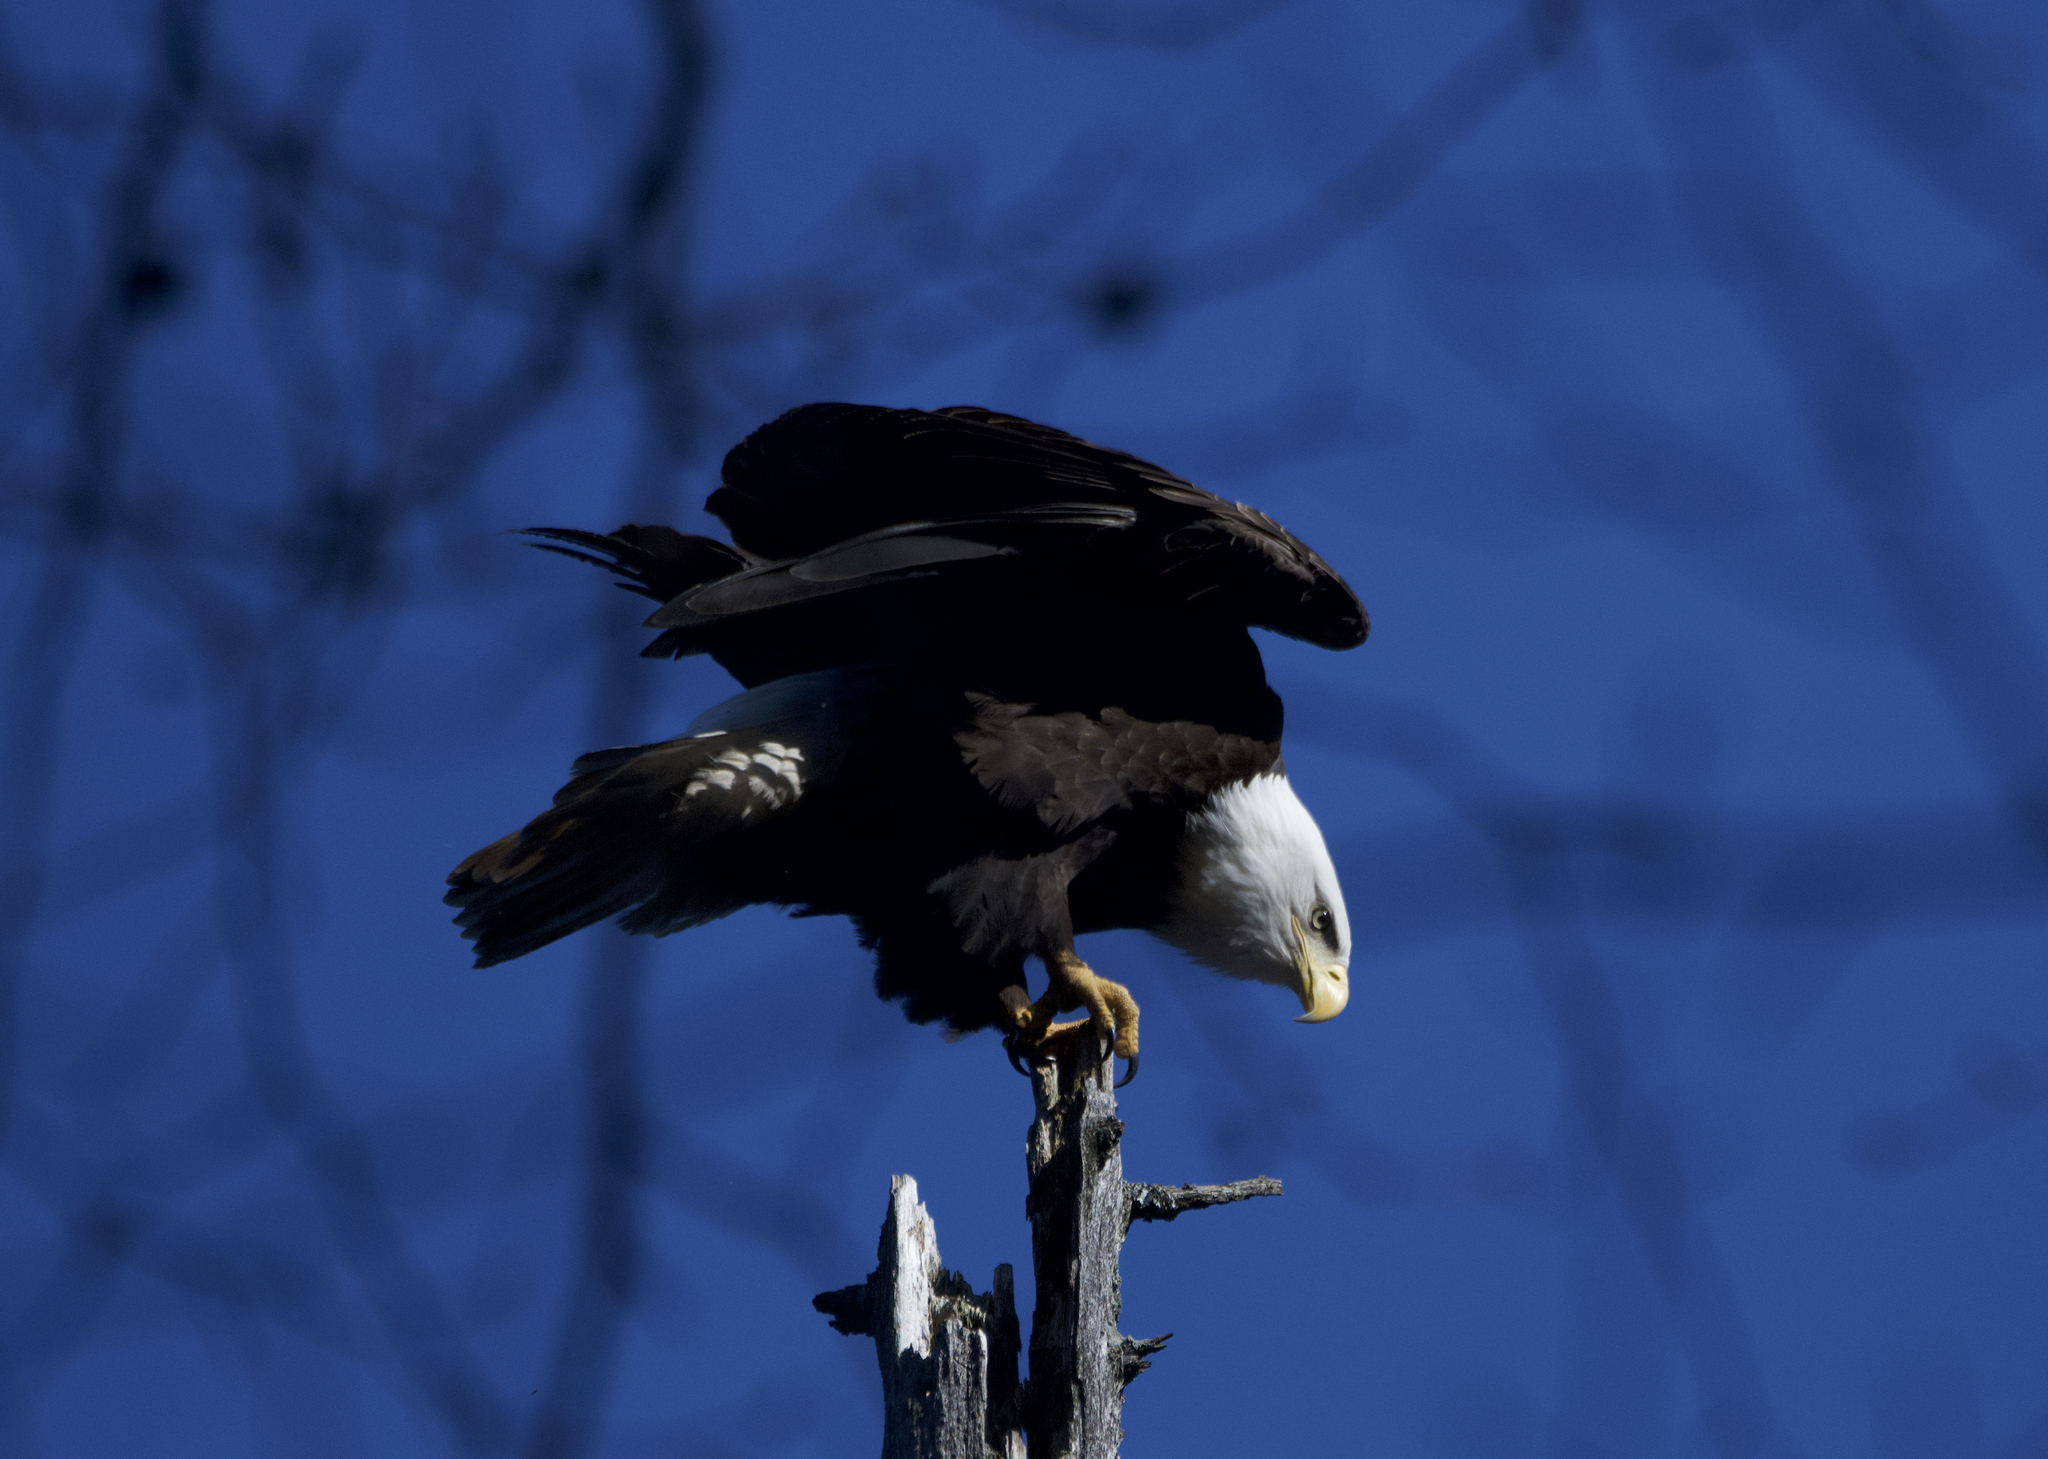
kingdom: Animalia
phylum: Chordata
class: Aves
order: Accipitriformes
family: Accipitridae
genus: Haliaeetus
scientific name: Haliaeetus leucocephalus
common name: Bald eagle
